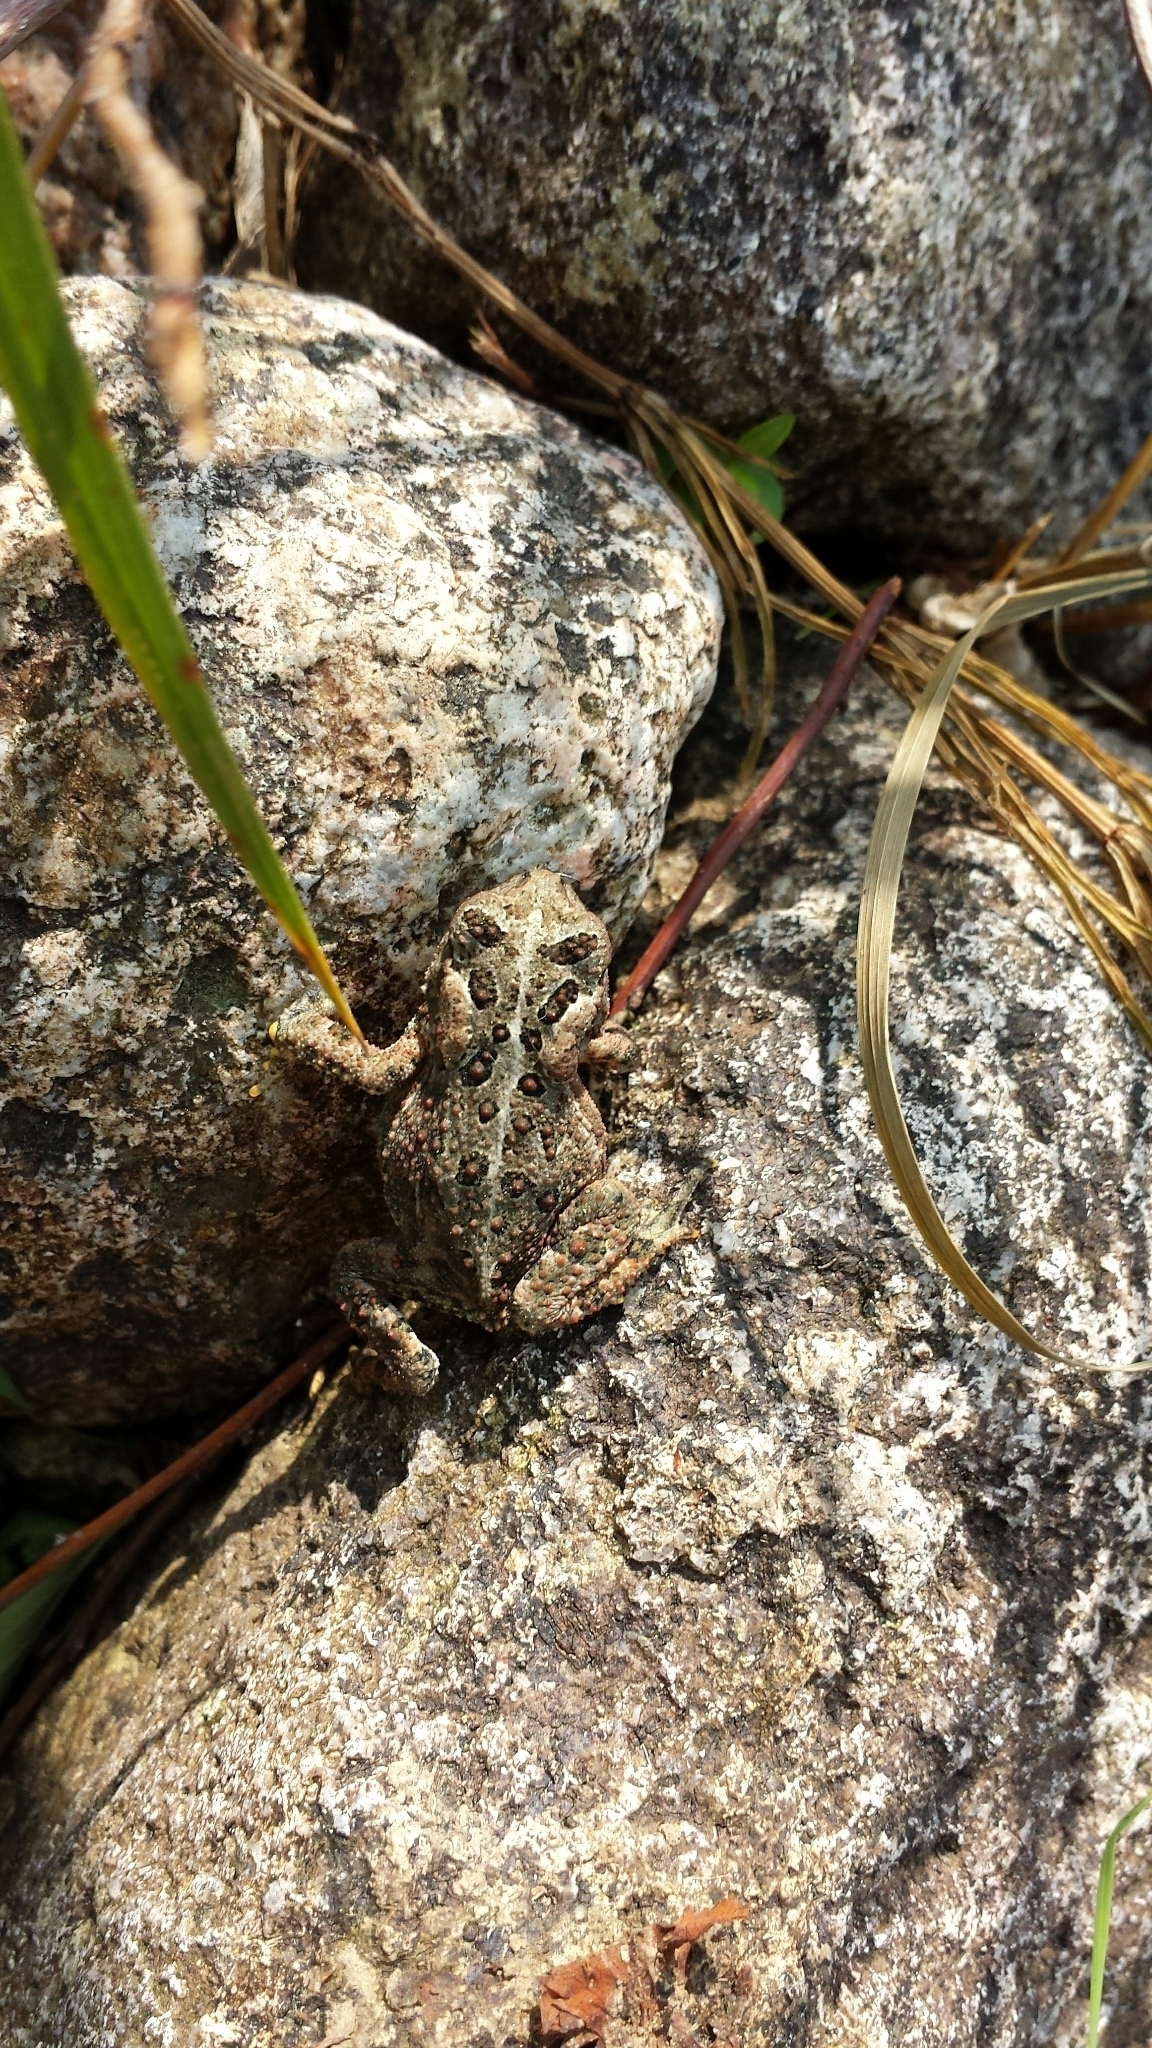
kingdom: Animalia
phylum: Chordata
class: Amphibia
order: Anura
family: Bufonidae
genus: Anaxyrus
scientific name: Anaxyrus americanus
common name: American toad
